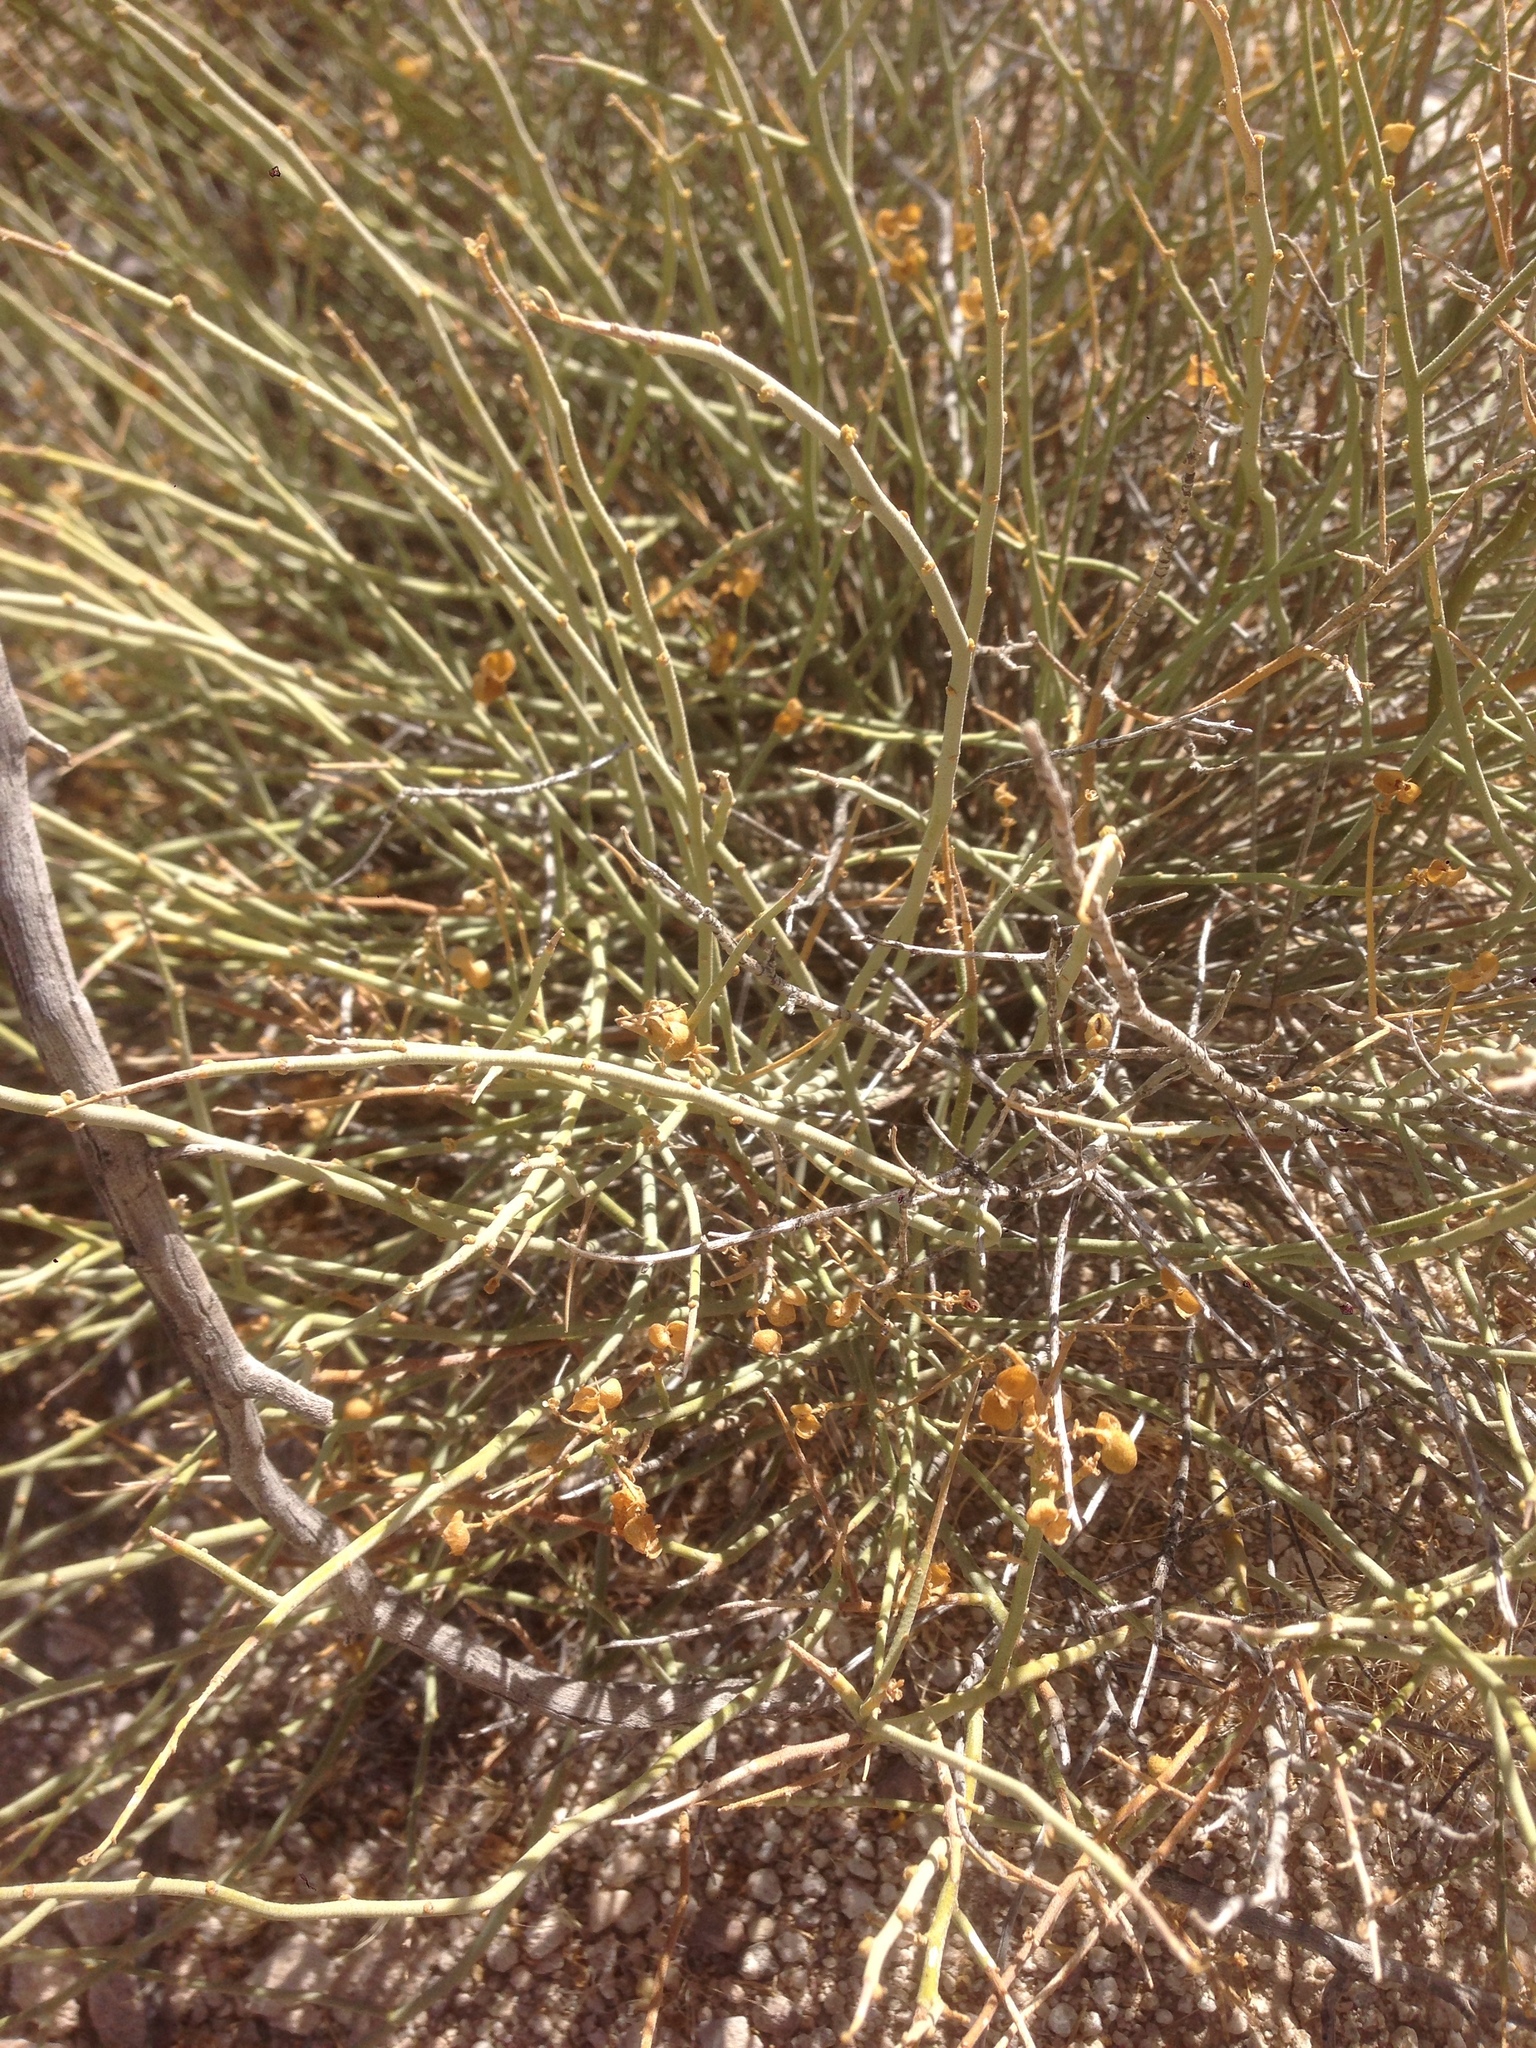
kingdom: Plantae
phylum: Tracheophyta
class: Magnoliopsida
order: Sapindales
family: Rutaceae
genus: Thamnosma
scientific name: Thamnosma montana
